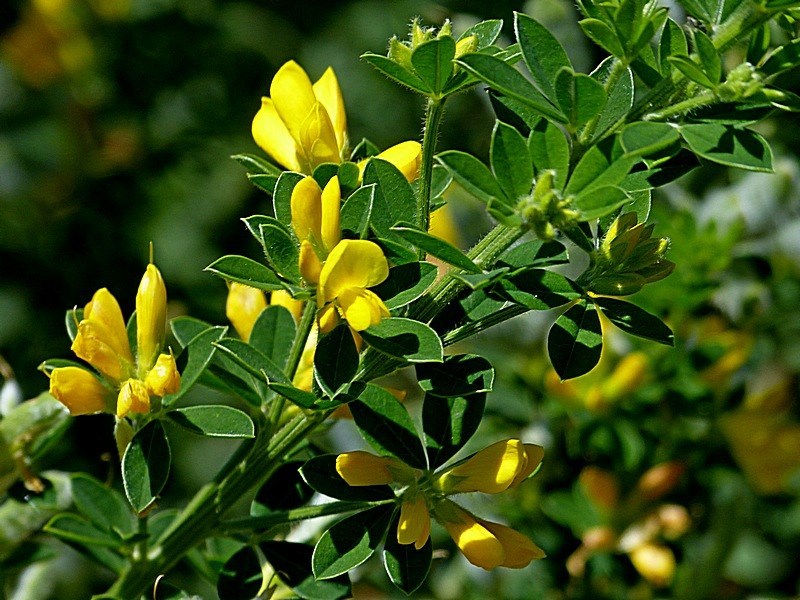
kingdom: Plantae
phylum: Tracheophyta
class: Magnoliopsida
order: Fabales
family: Fabaceae
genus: Genista
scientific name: Genista monspessulana
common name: Montpellier broom
